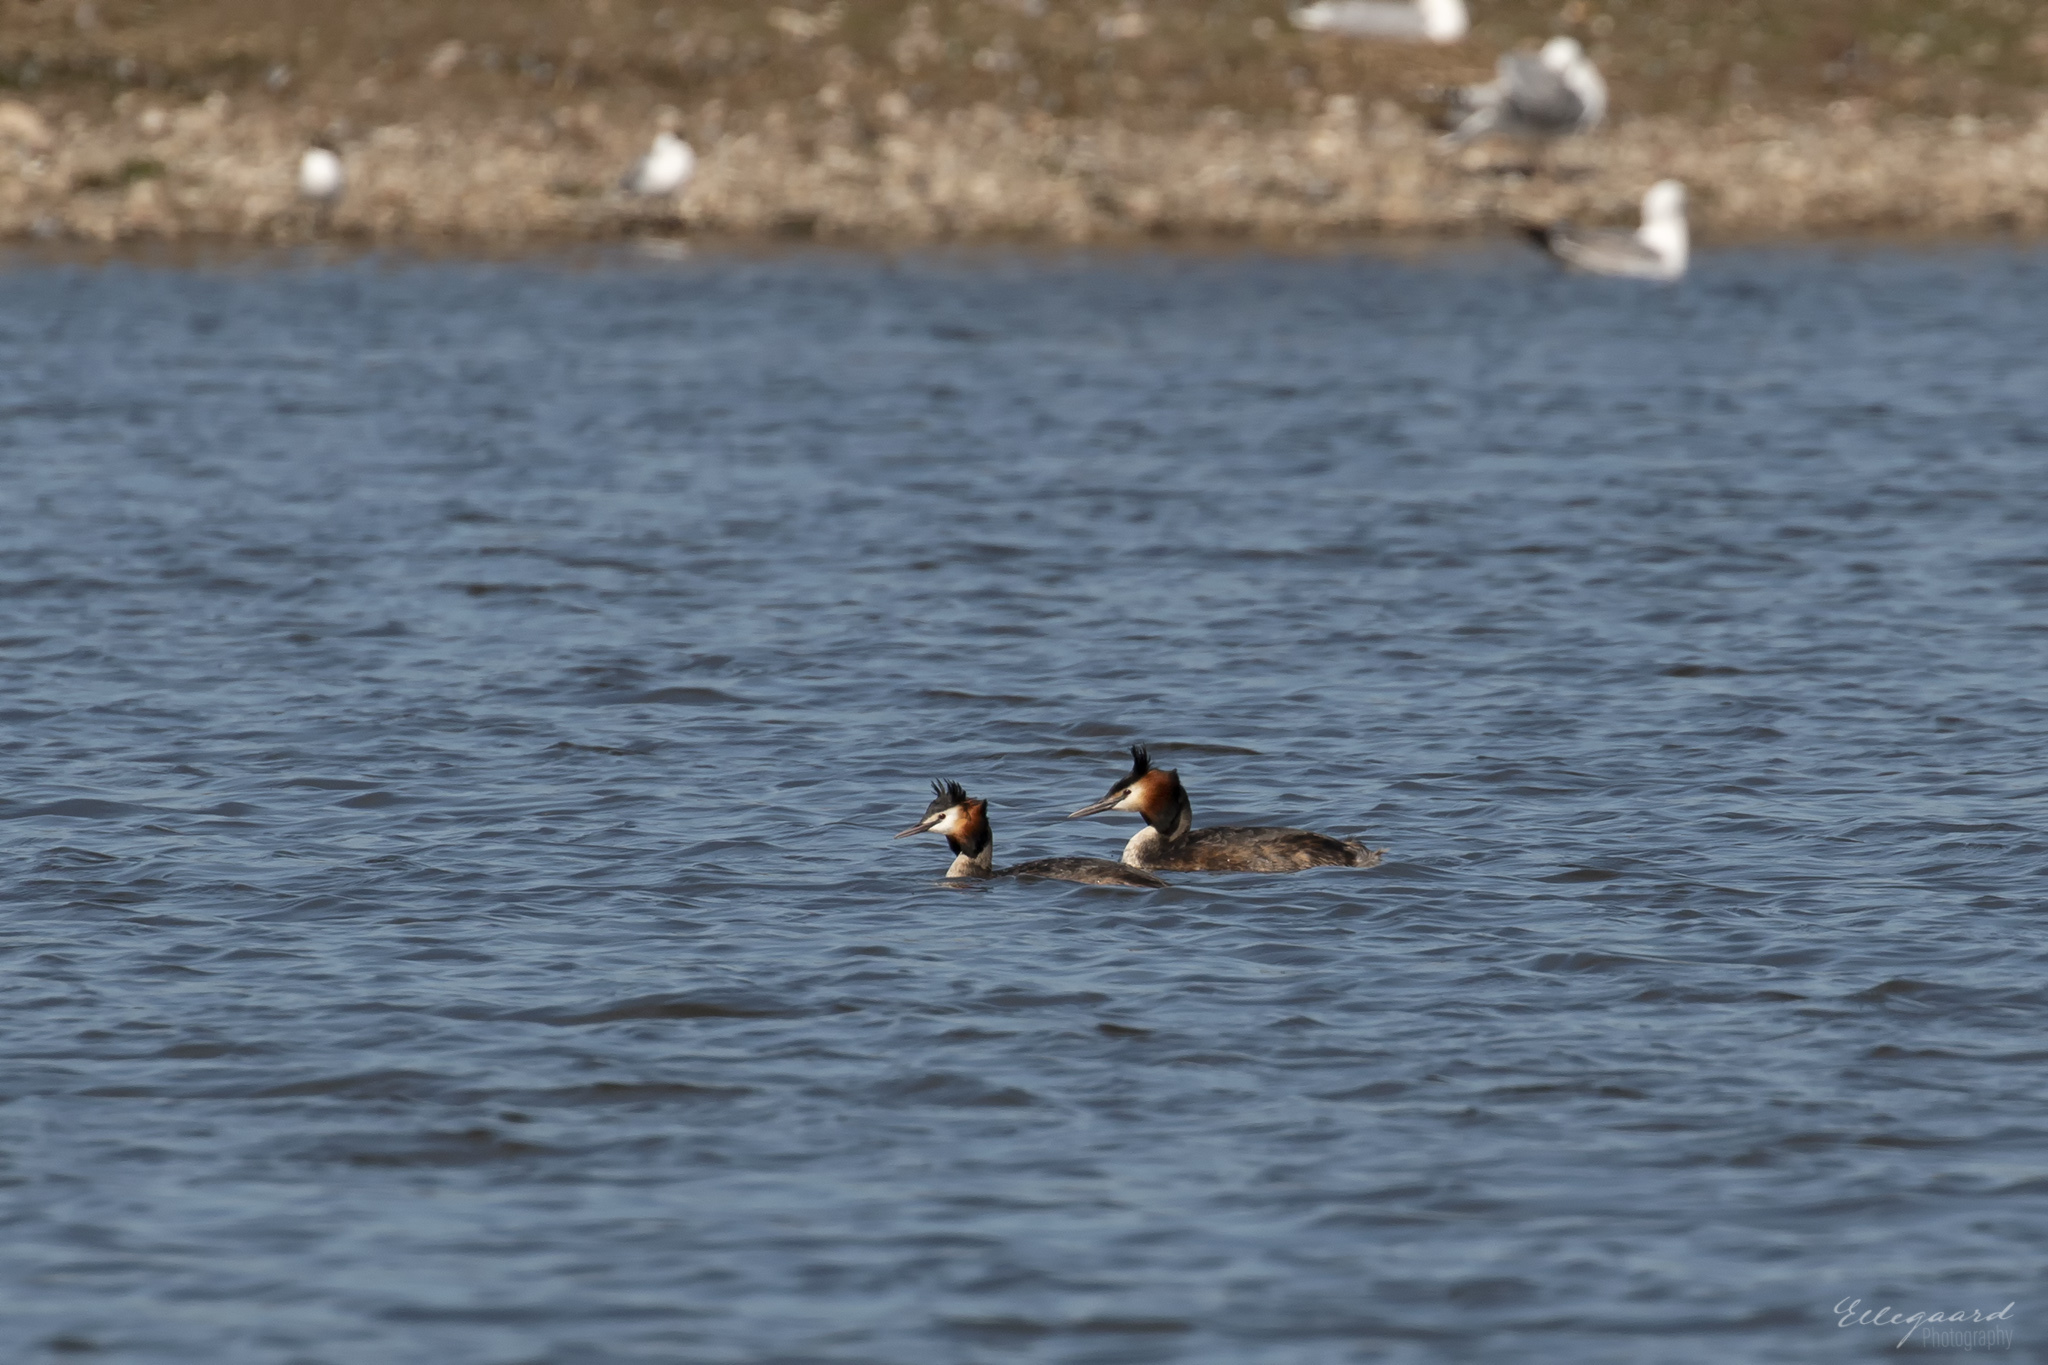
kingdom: Animalia
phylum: Chordata
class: Aves
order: Podicipediformes
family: Podicipedidae
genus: Podiceps
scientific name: Podiceps cristatus
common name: Great crested grebe
